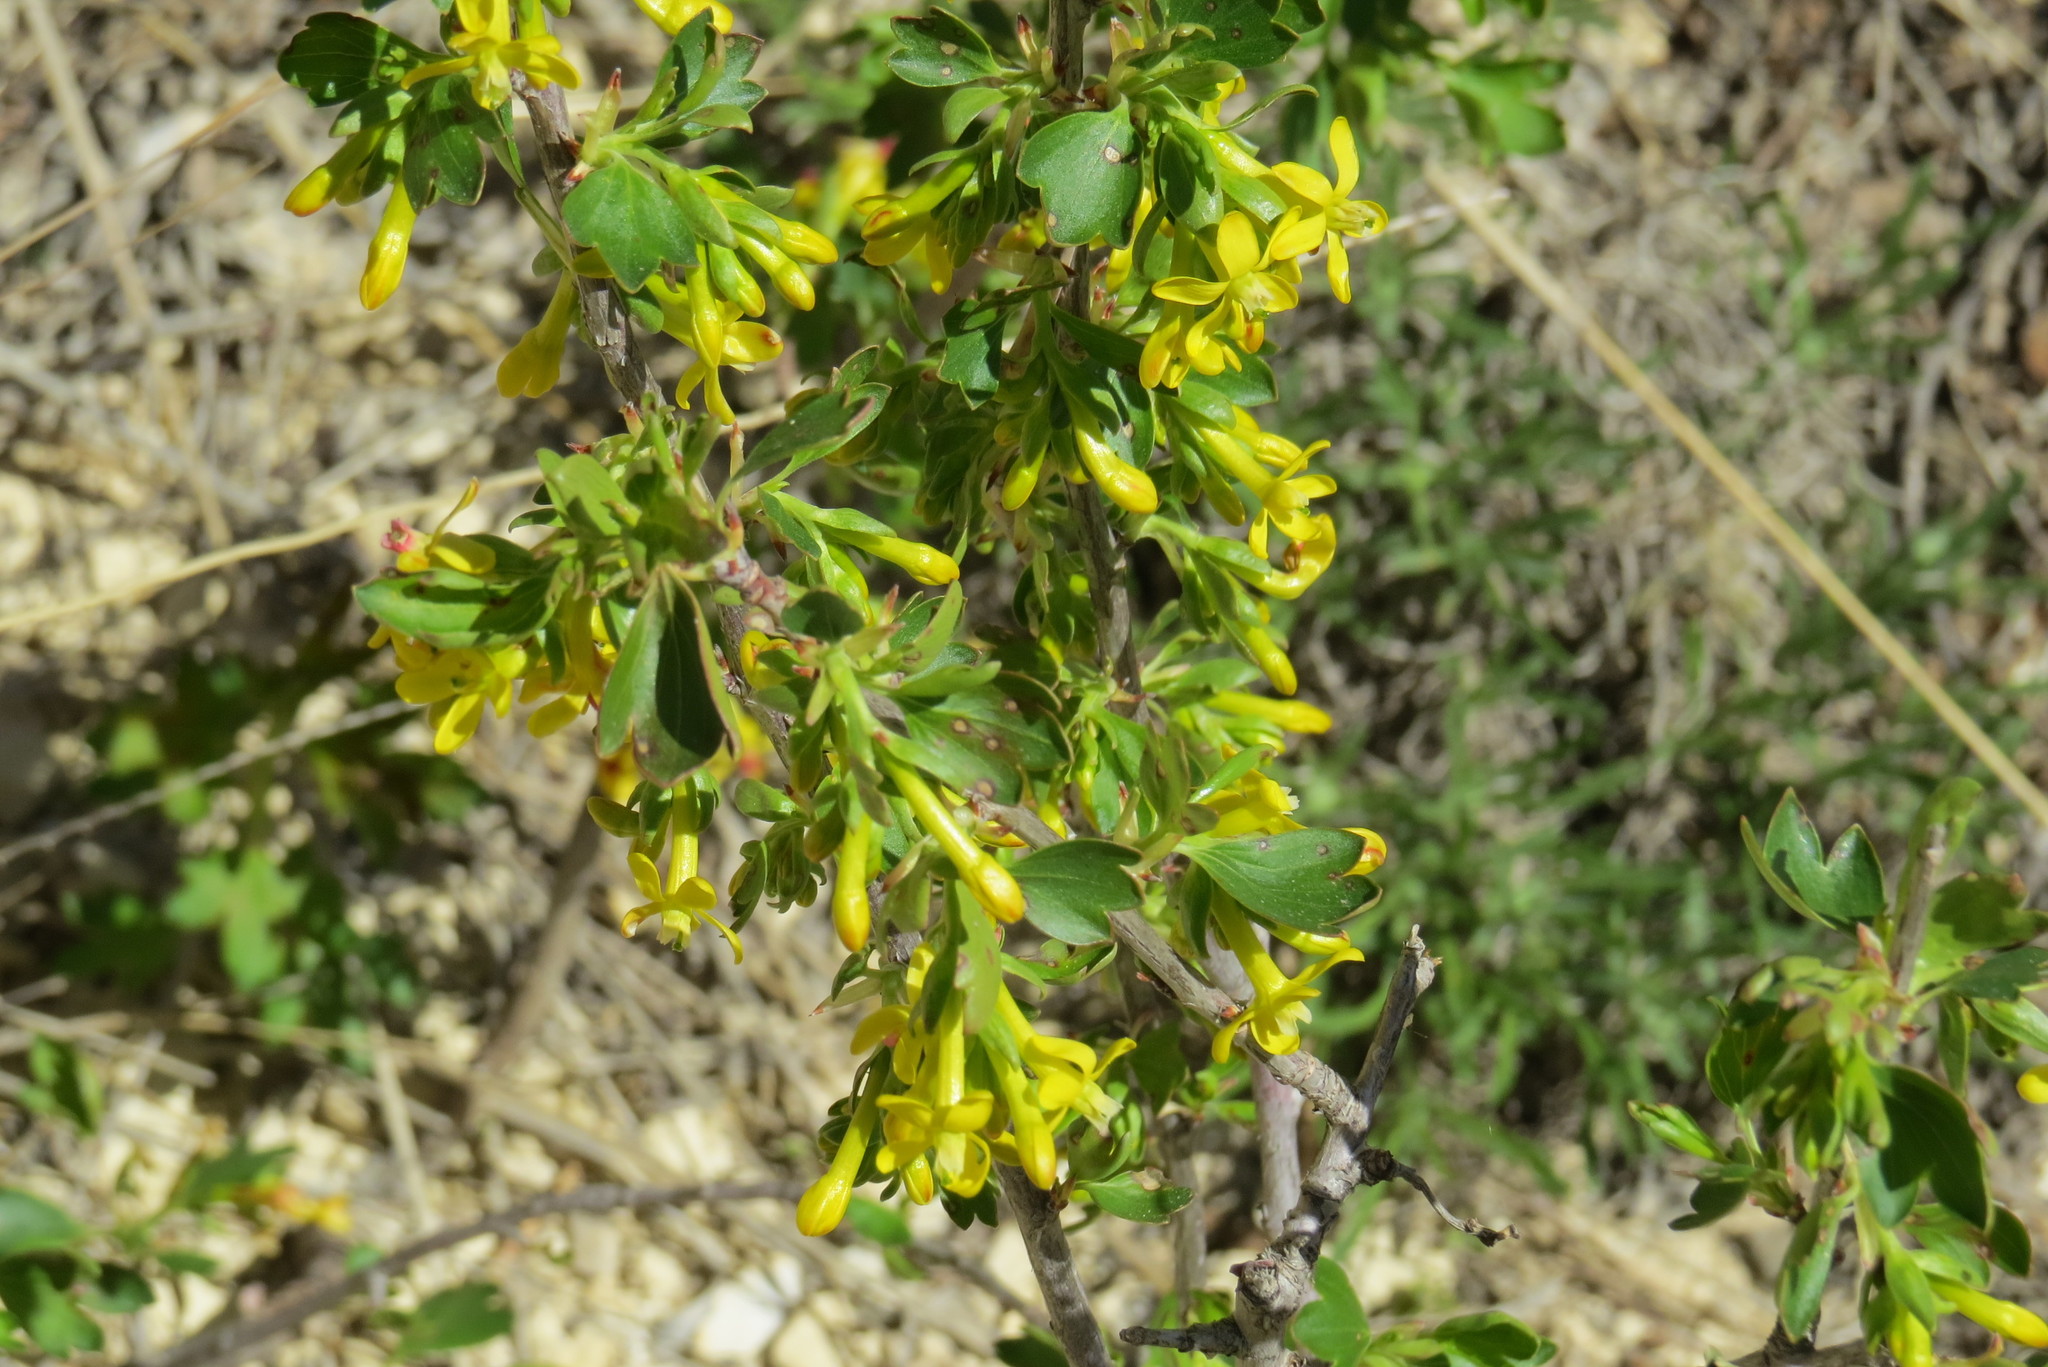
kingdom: Plantae
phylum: Tracheophyta
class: Magnoliopsida
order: Saxifragales
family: Grossulariaceae
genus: Ribes
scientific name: Ribes aureum
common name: Golden currant
